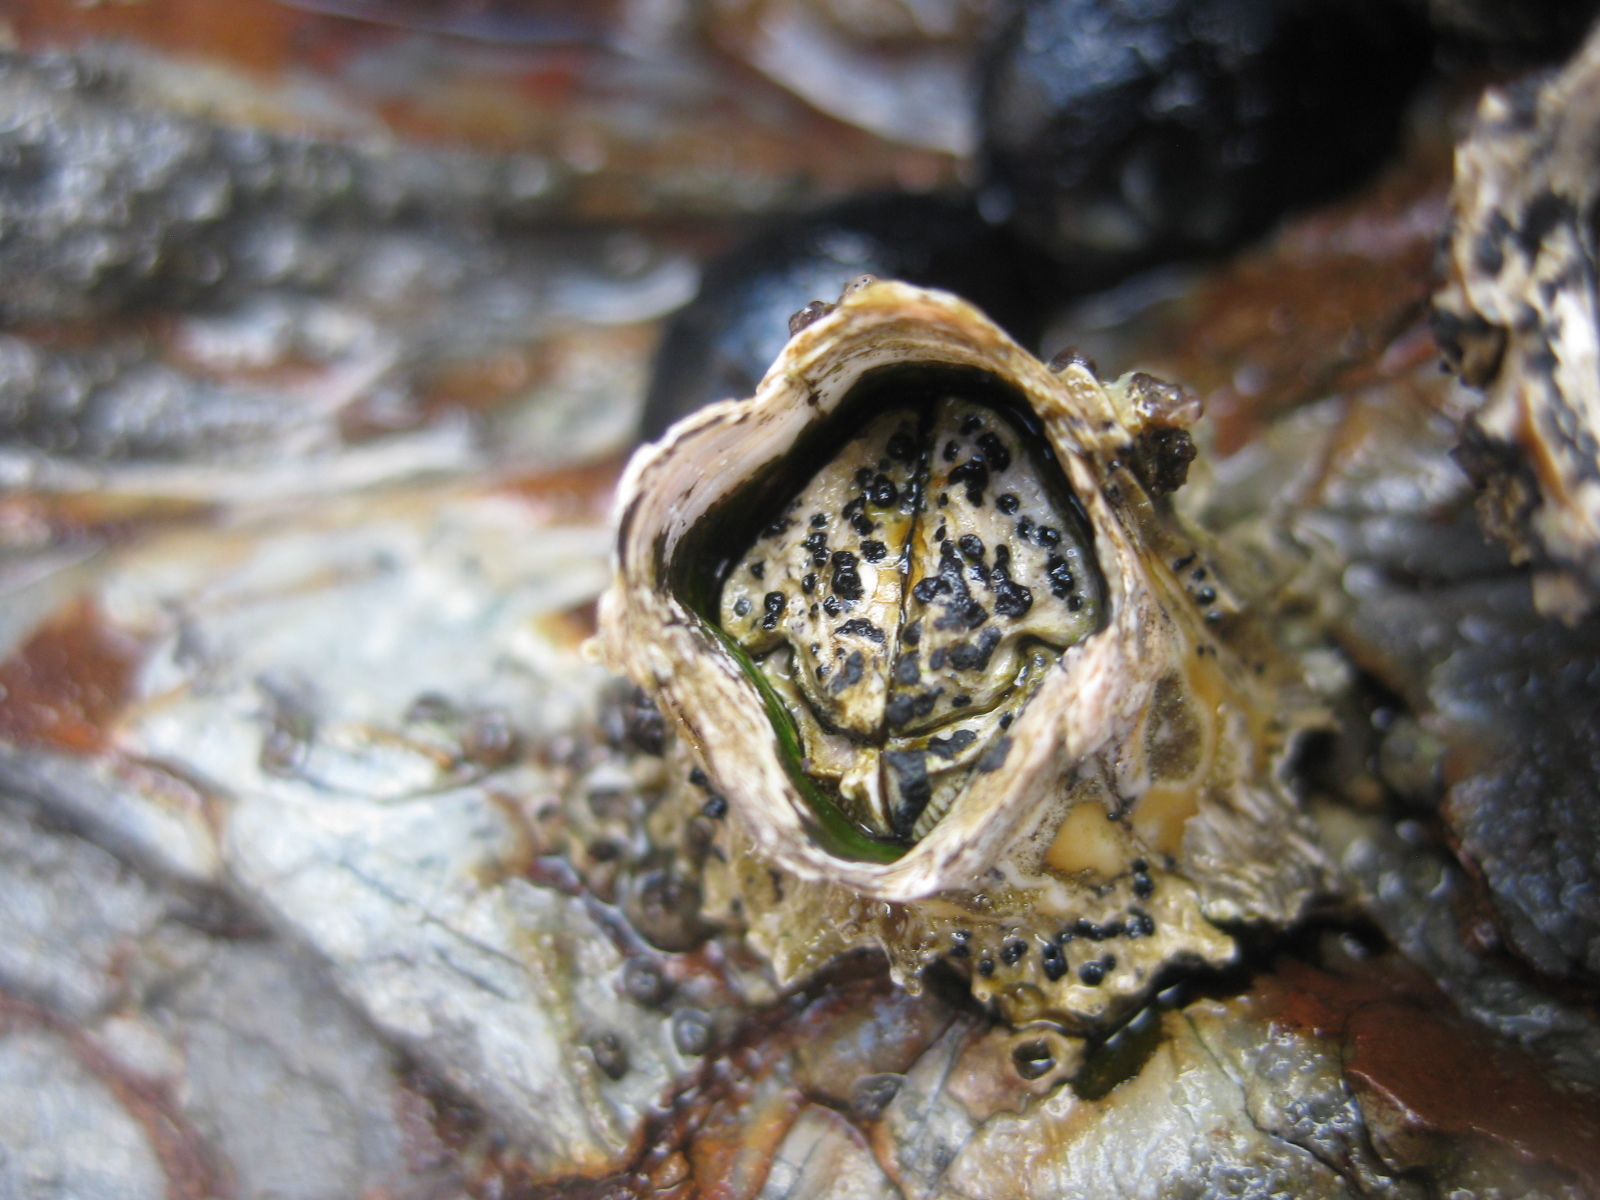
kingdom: Fungi
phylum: Ascomycota
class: Dothideomycetes
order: Collemopsidiales
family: Xanthopyreniaceae
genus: Collemopsidium
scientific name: Collemopsidium ostrearum
